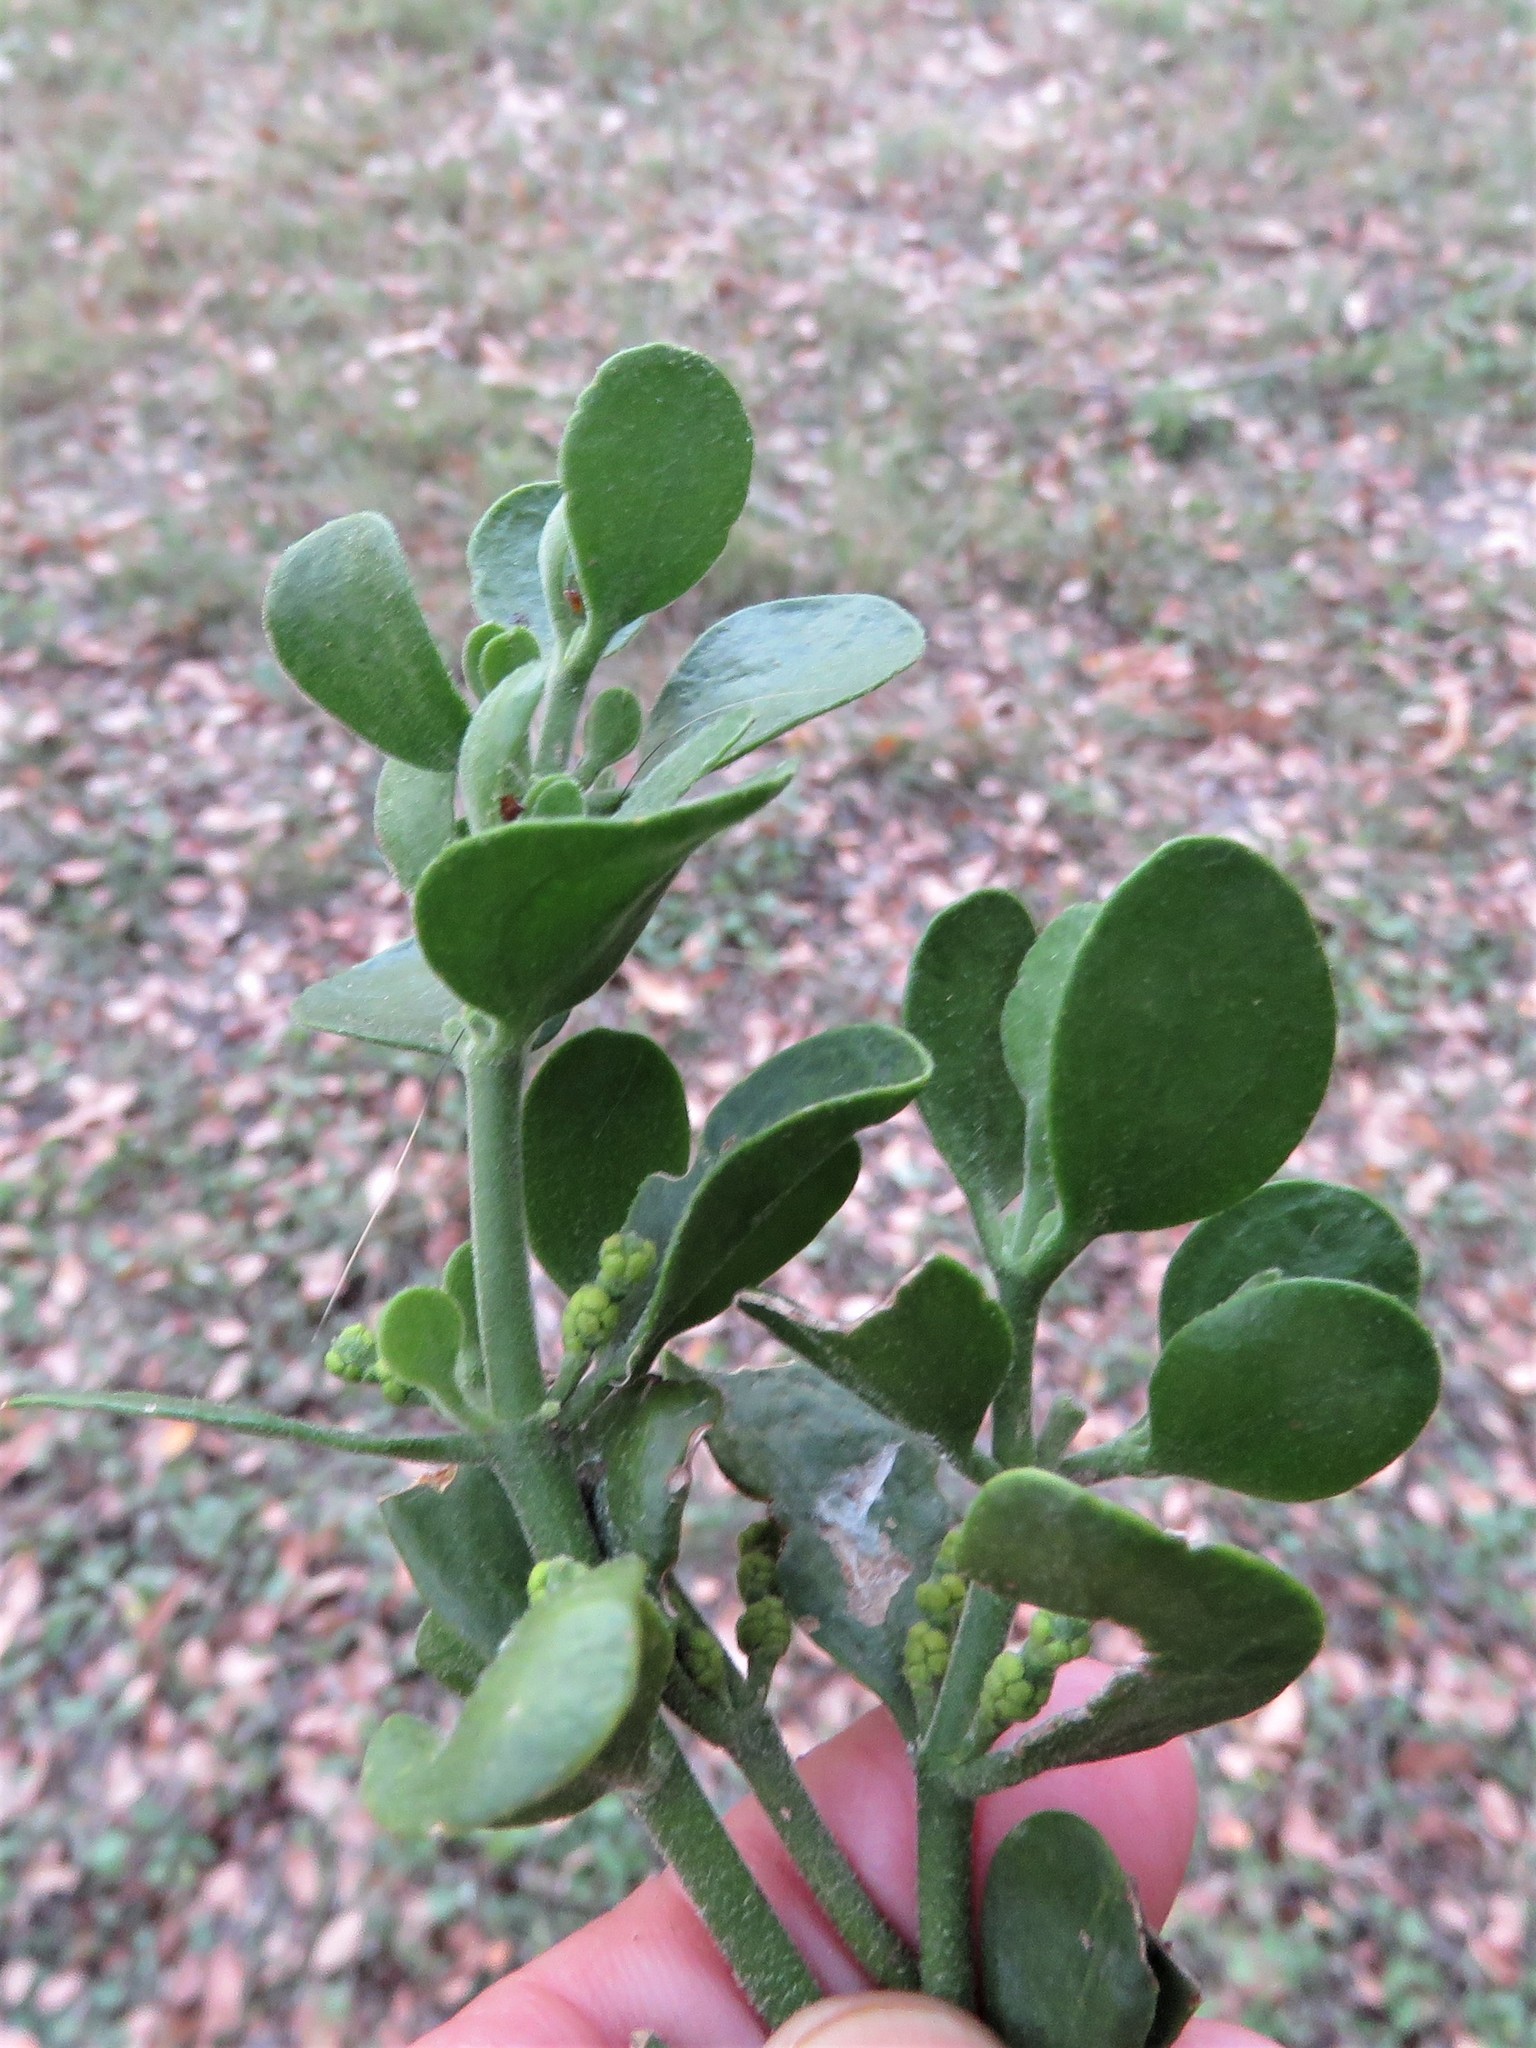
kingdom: Plantae
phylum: Tracheophyta
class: Magnoliopsida
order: Santalales
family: Viscaceae
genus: Phoradendron
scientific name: Phoradendron leucarpum
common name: Pacific mistletoe
